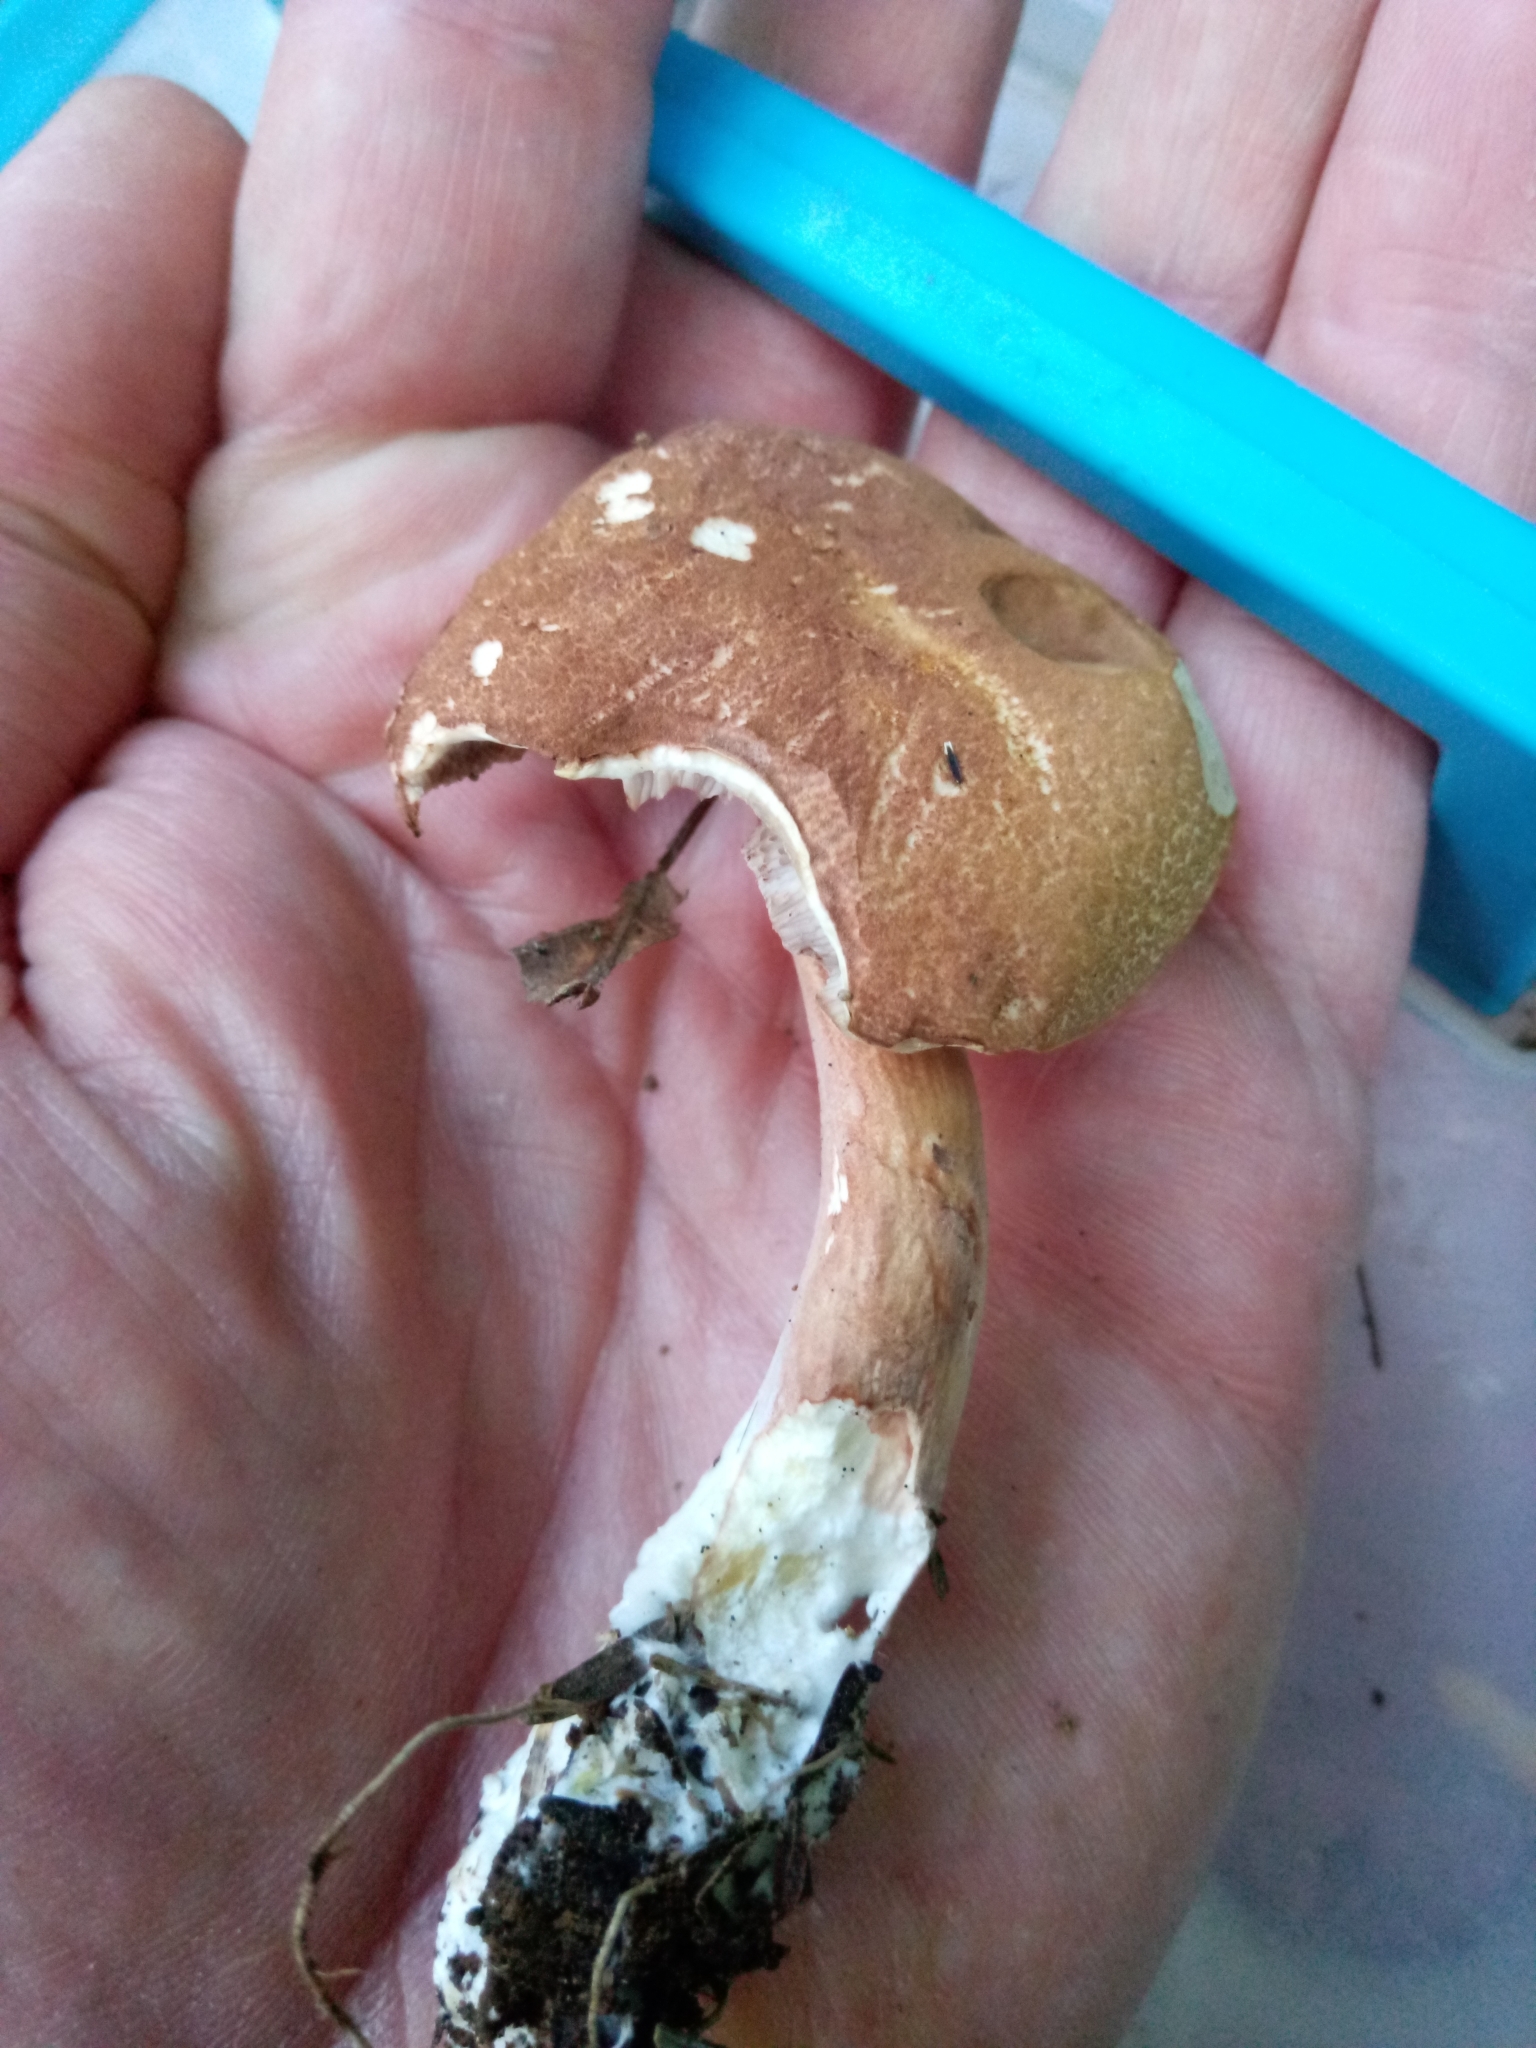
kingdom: Fungi
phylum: Basidiomycota
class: Agaricomycetes
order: Boletales
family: Boletaceae
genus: Austroboletus
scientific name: Austroboletus gracilis
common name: Graceful bolete
